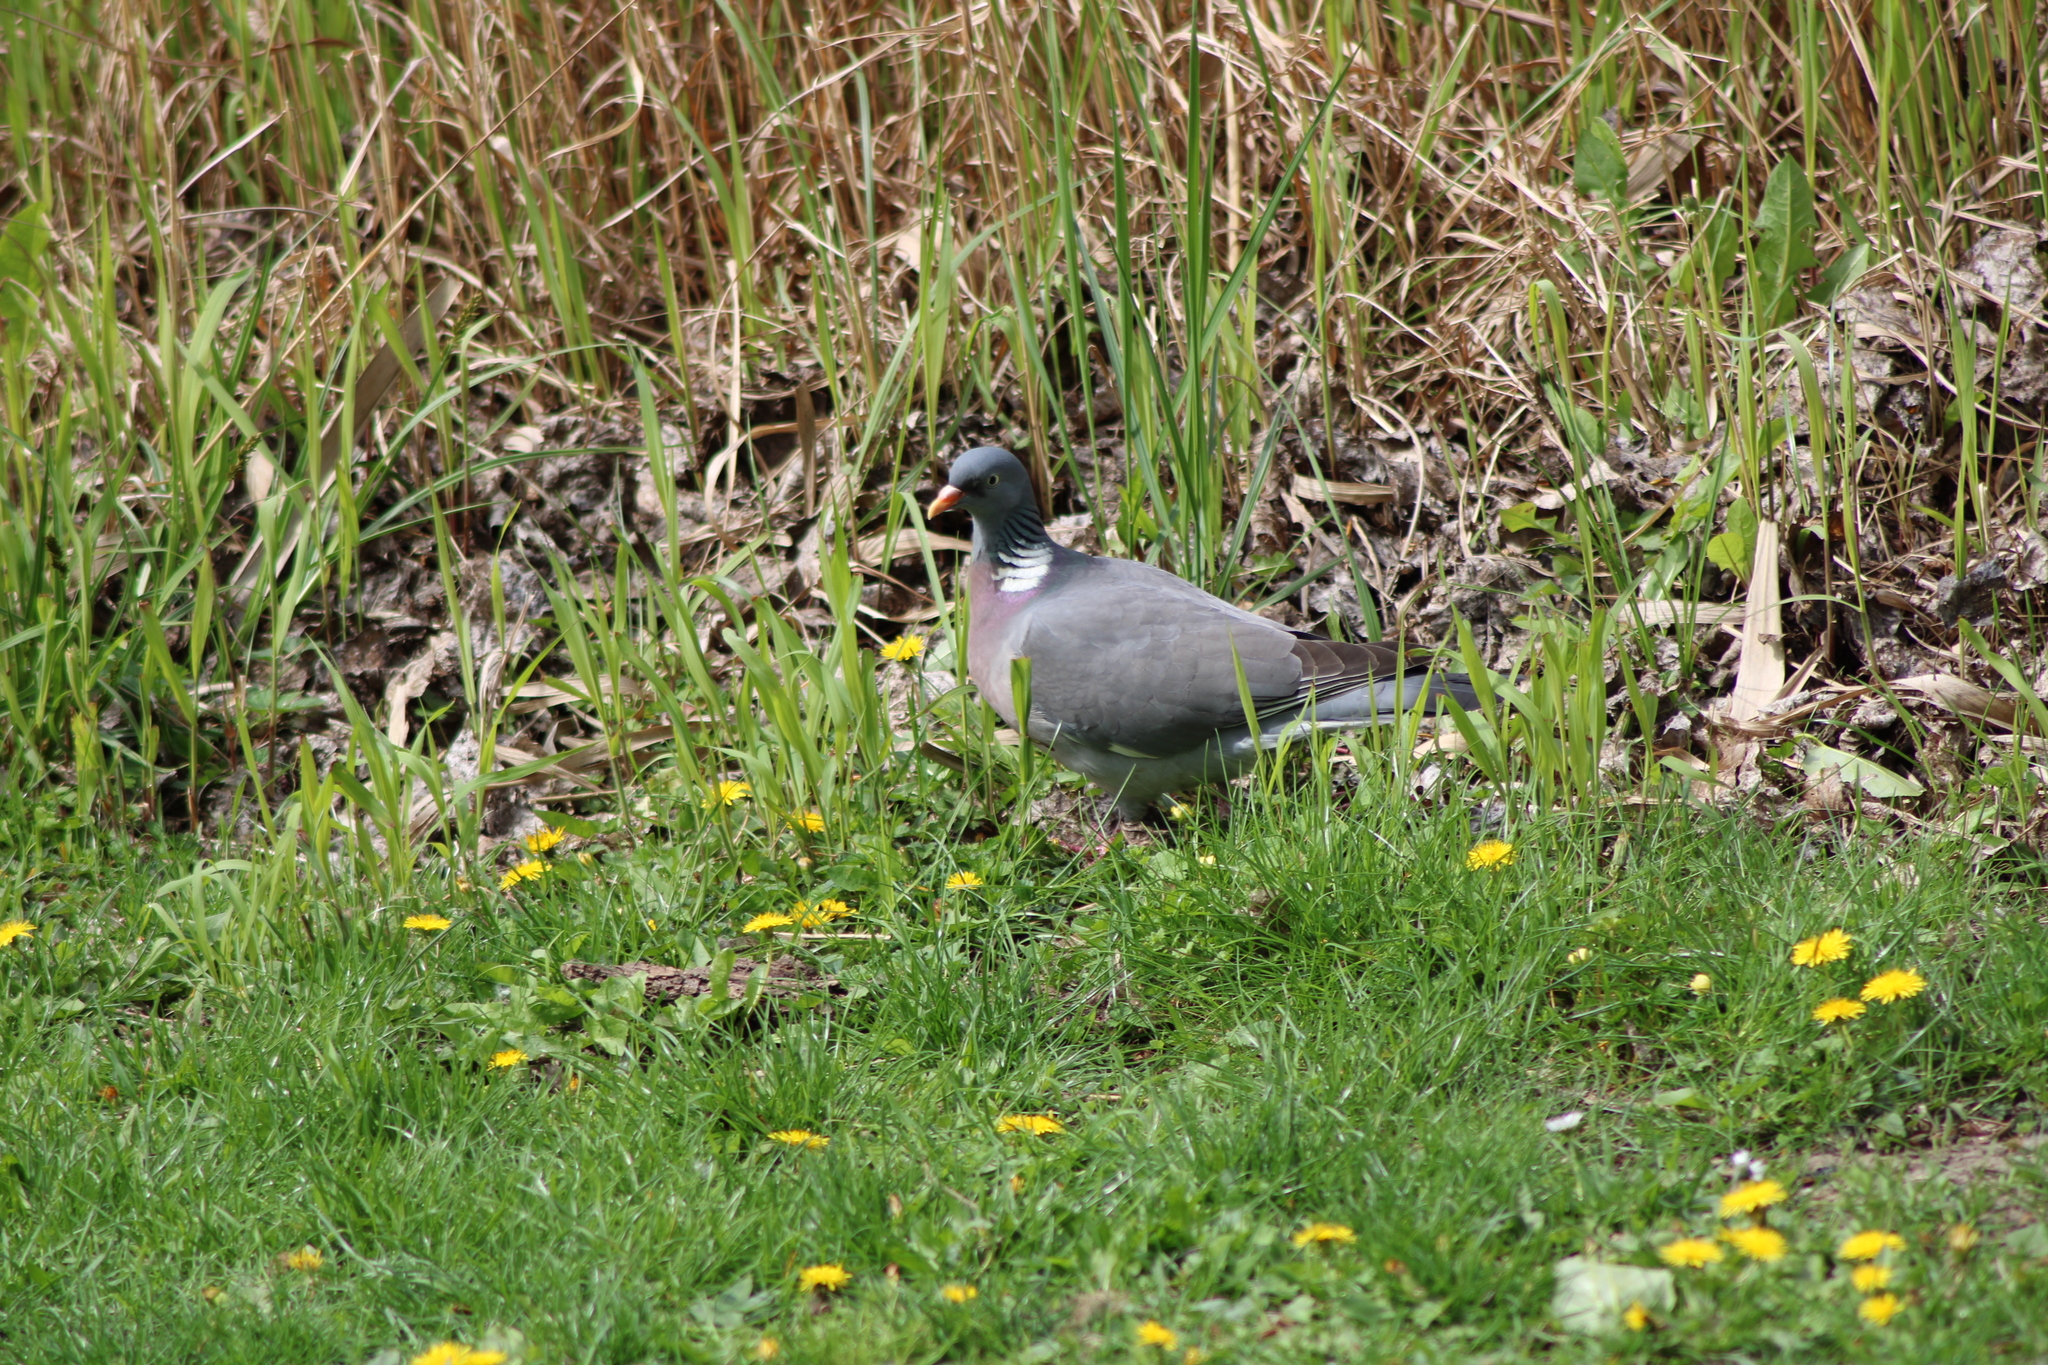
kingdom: Animalia
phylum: Chordata
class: Aves
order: Columbiformes
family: Columbidae
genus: Columba
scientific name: Columba palumbus
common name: Common wood pigeon
